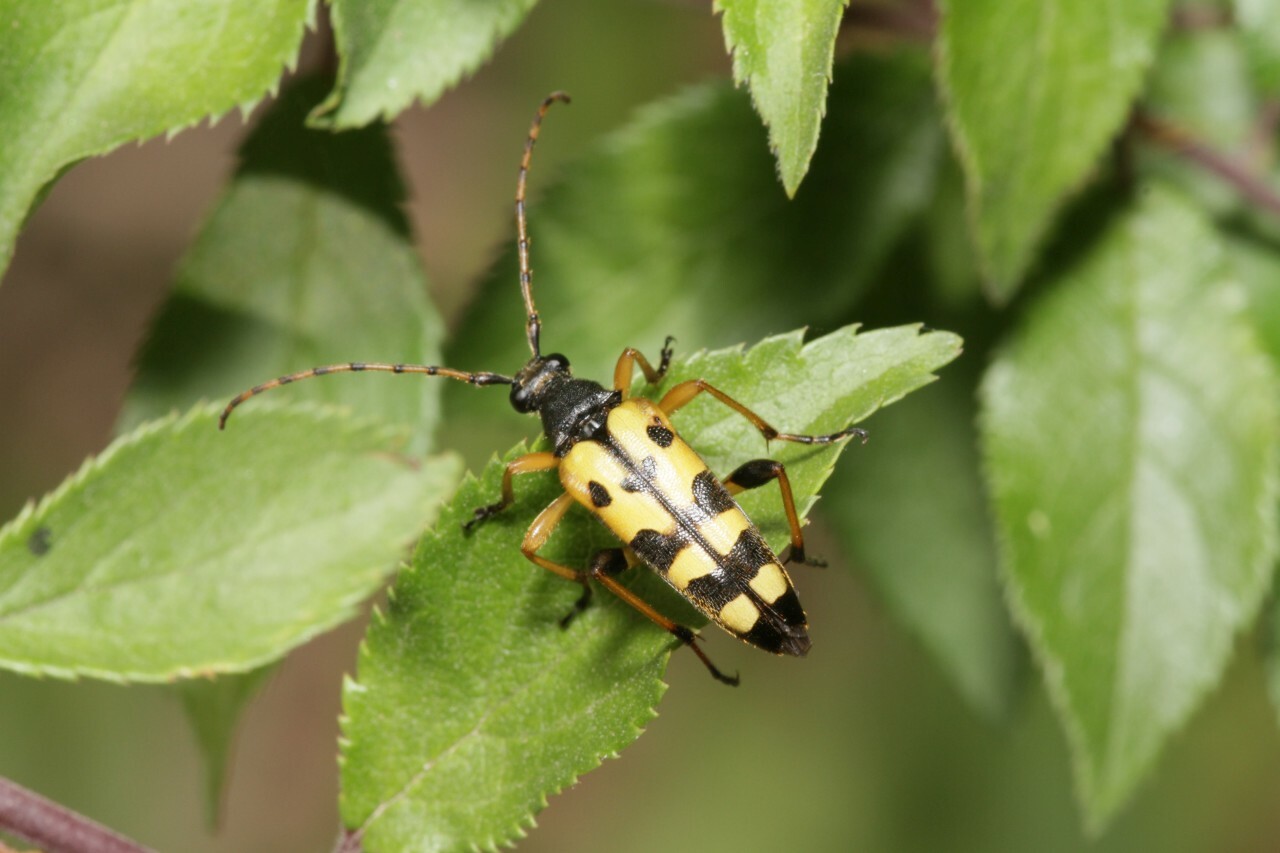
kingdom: Animalia
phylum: Arthropoda
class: Insecta
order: Coleoptera
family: Cerambycidae
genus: Rutpela
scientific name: Rutpela maculata
